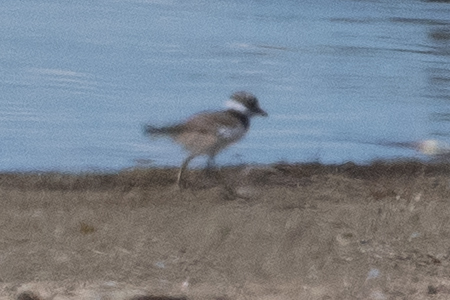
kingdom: Animalia
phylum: Chordata
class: Aves
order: Charadriiformes
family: Charadriidae
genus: Charadrius
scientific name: Charadrius vociferus
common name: Killdeer
